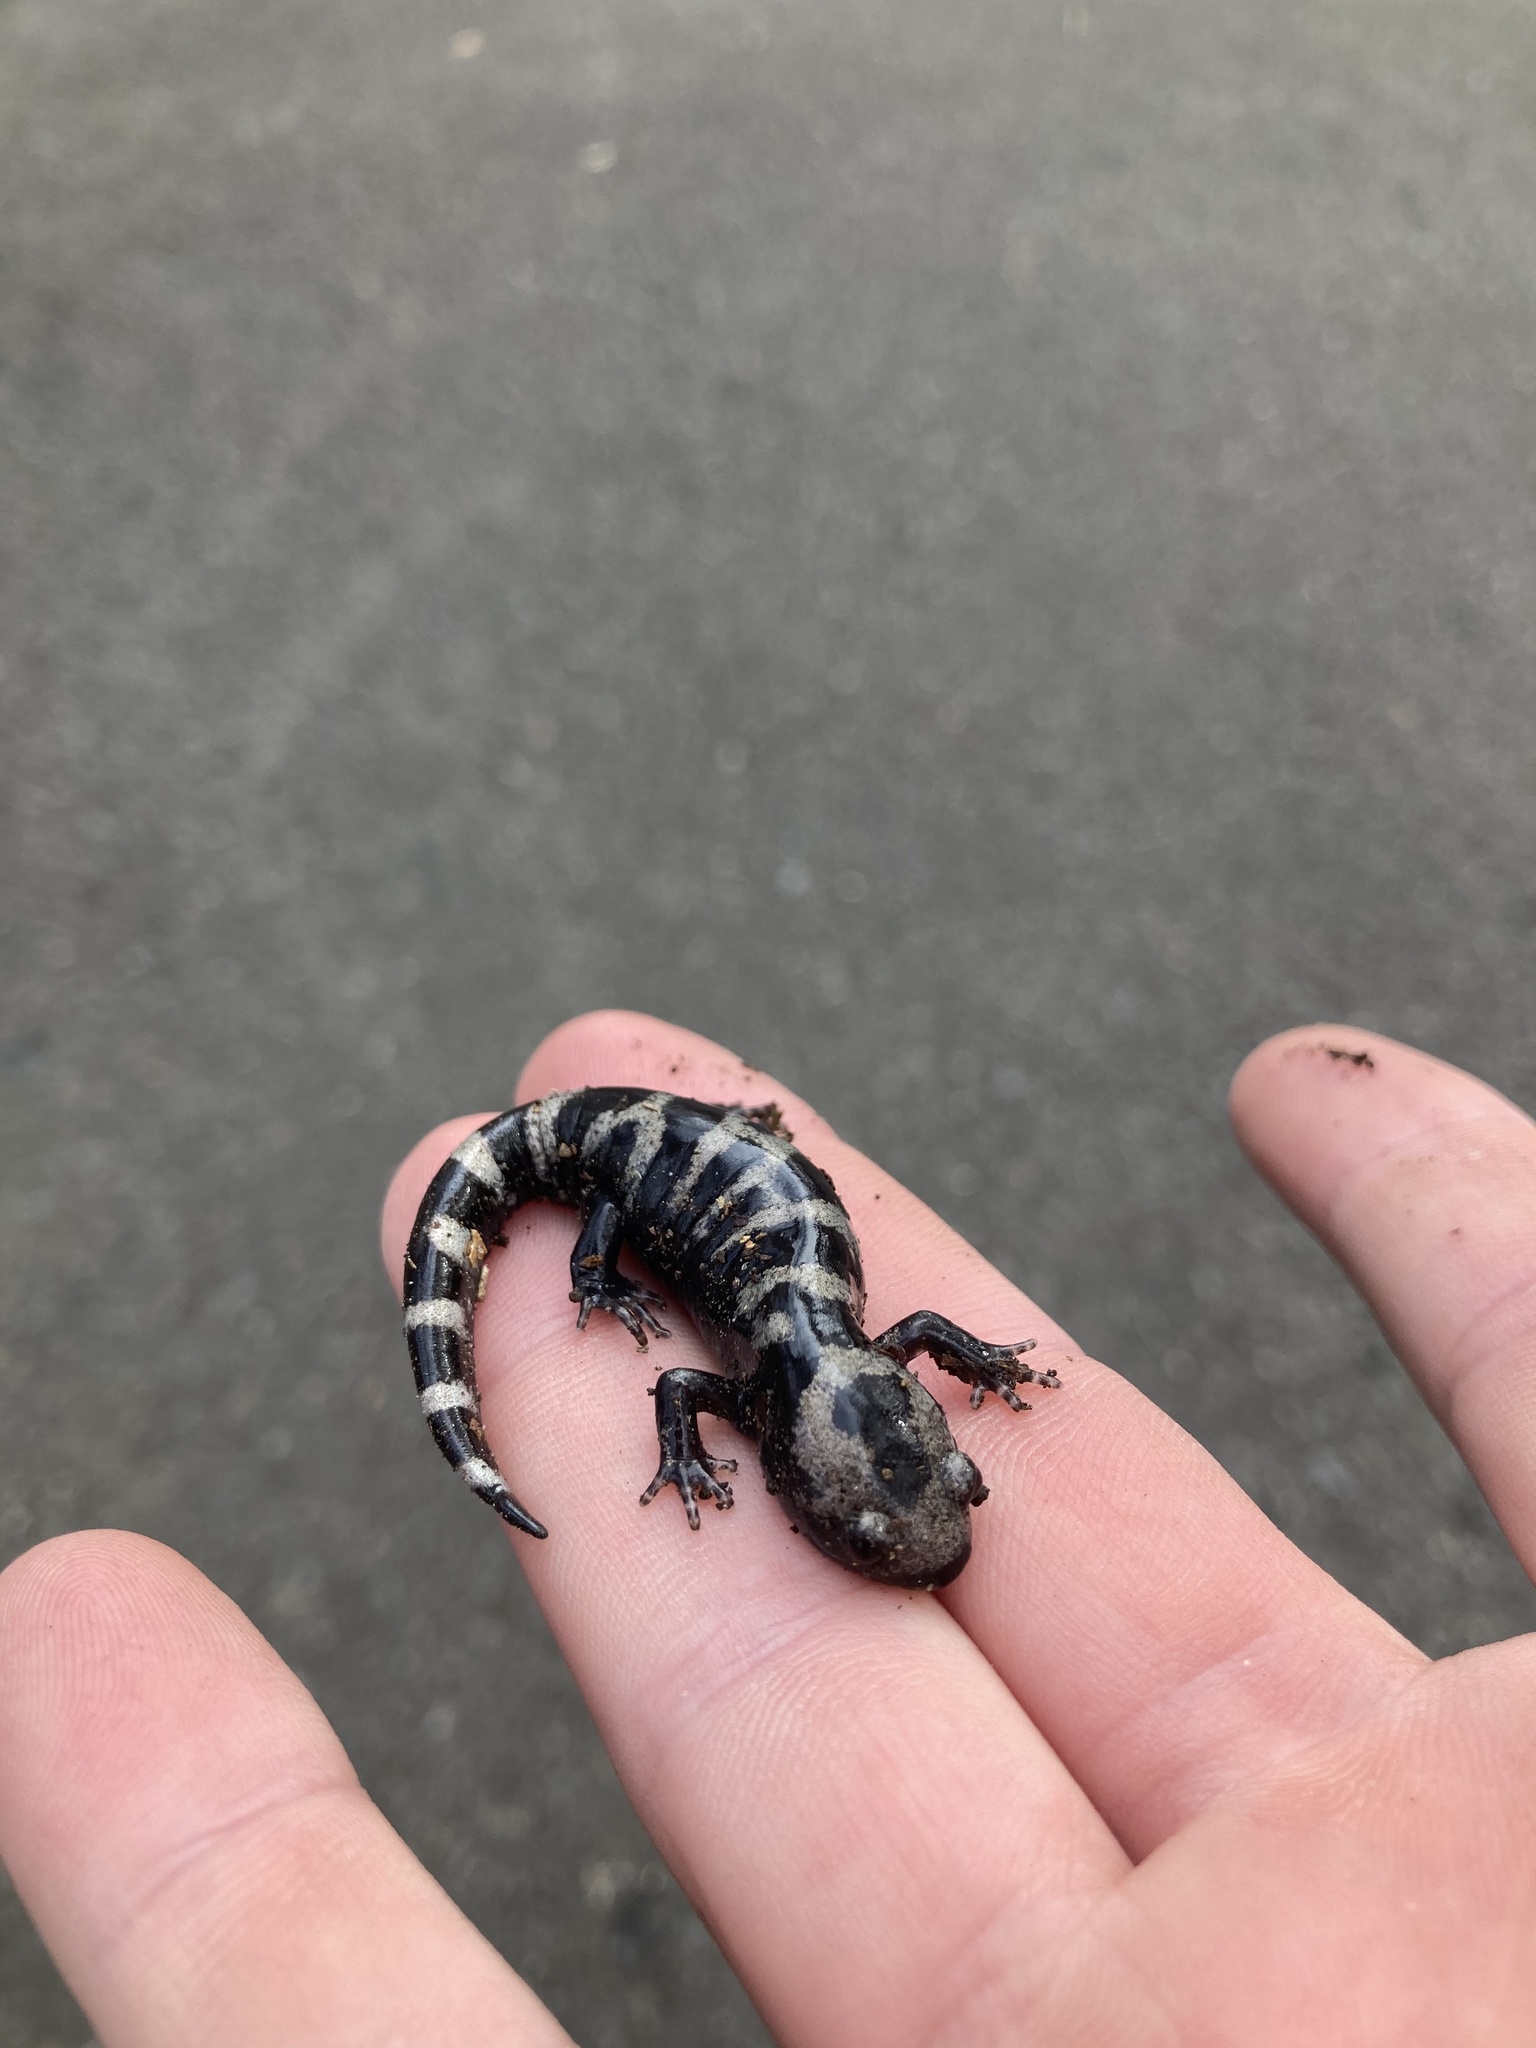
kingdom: Animalia
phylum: Chordata
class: Amphibia
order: Caudata
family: Ambystomatidae
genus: Ambystoma
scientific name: Ambystoma opacum
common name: Marbled salamander
